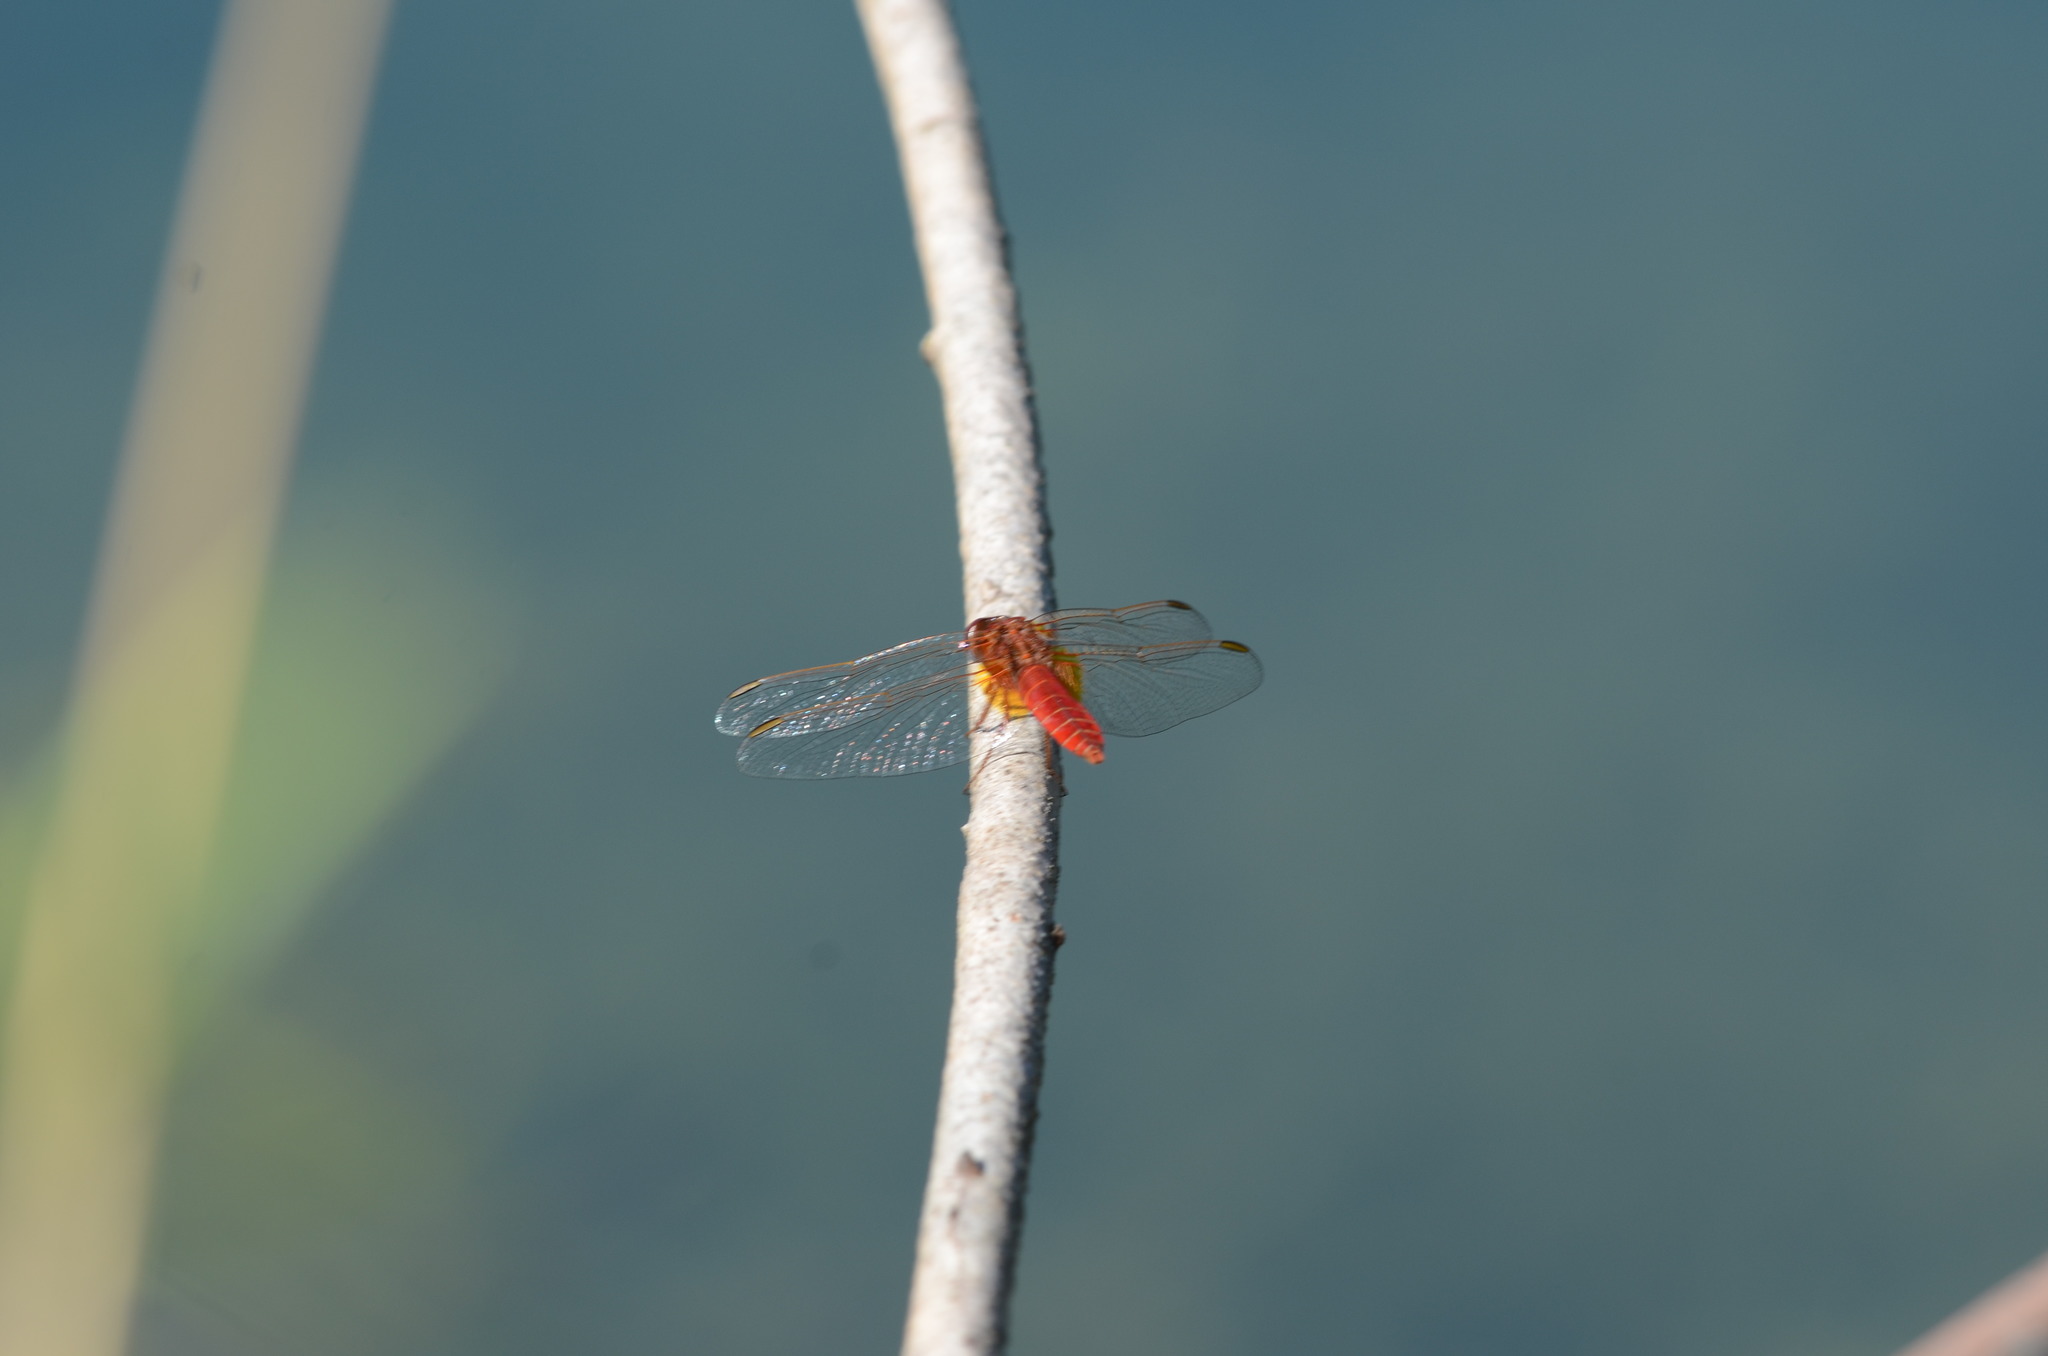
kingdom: Animalia
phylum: Arthropoda
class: Insecta
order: Odonata
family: Libellulidae
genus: Crocothemis
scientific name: Crocothemis erythraea
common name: Scarlet dragonfly
